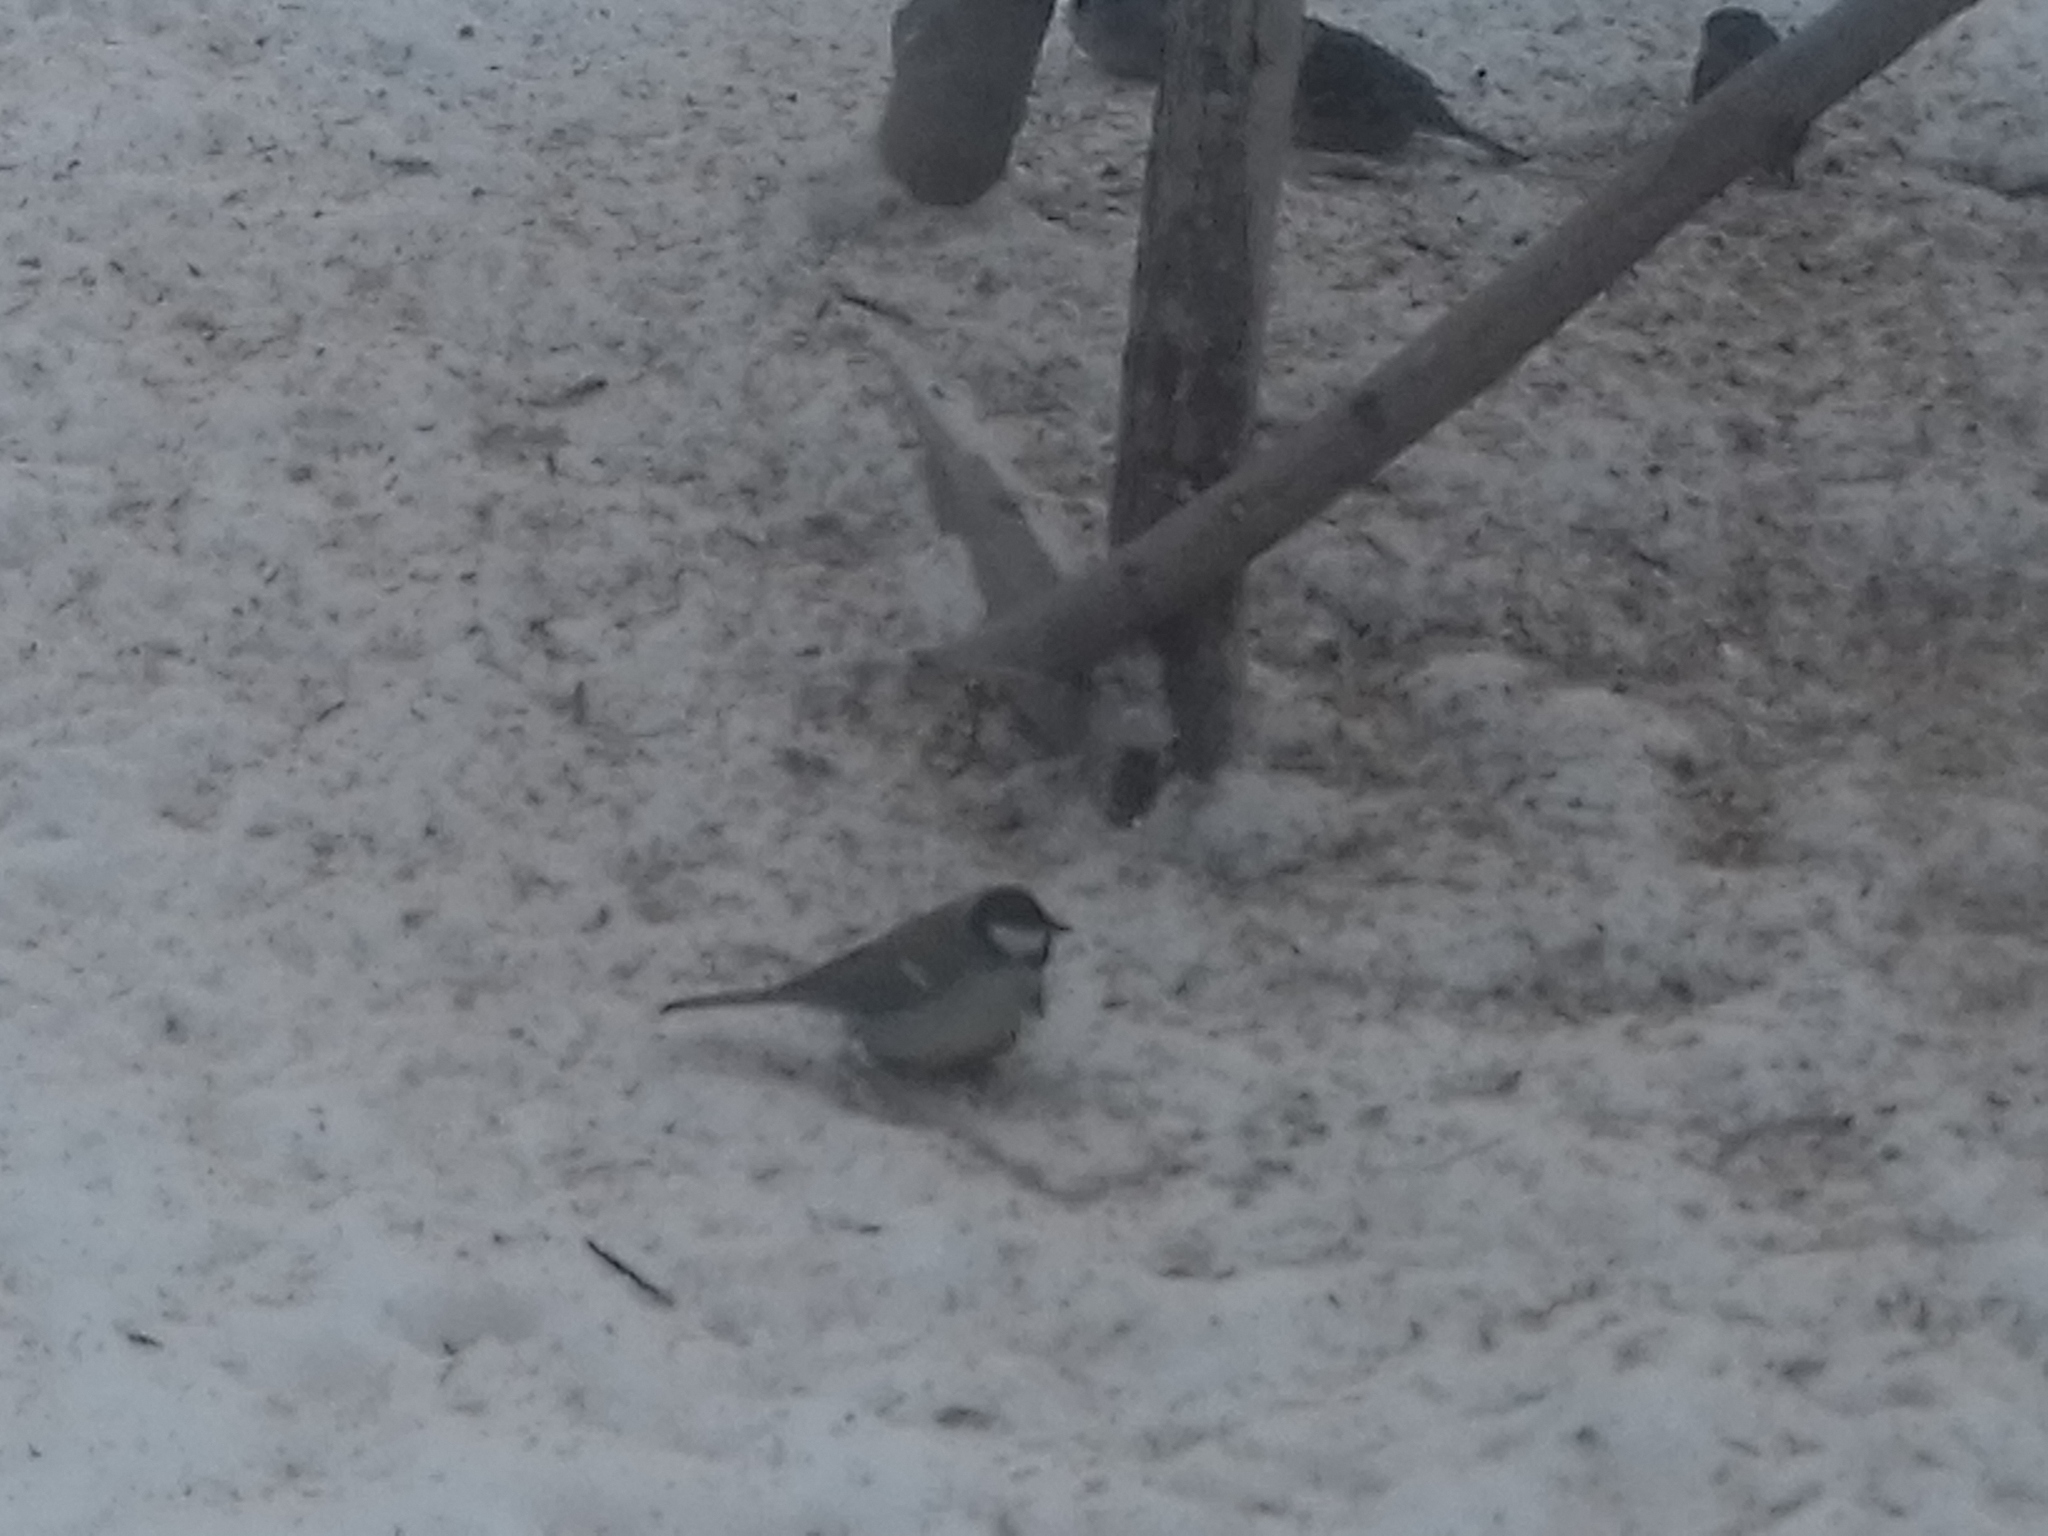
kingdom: Animalia
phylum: Chordata
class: Aves
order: Passeriformes
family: Paridae
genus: Parus
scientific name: Parus major
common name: Great tit
